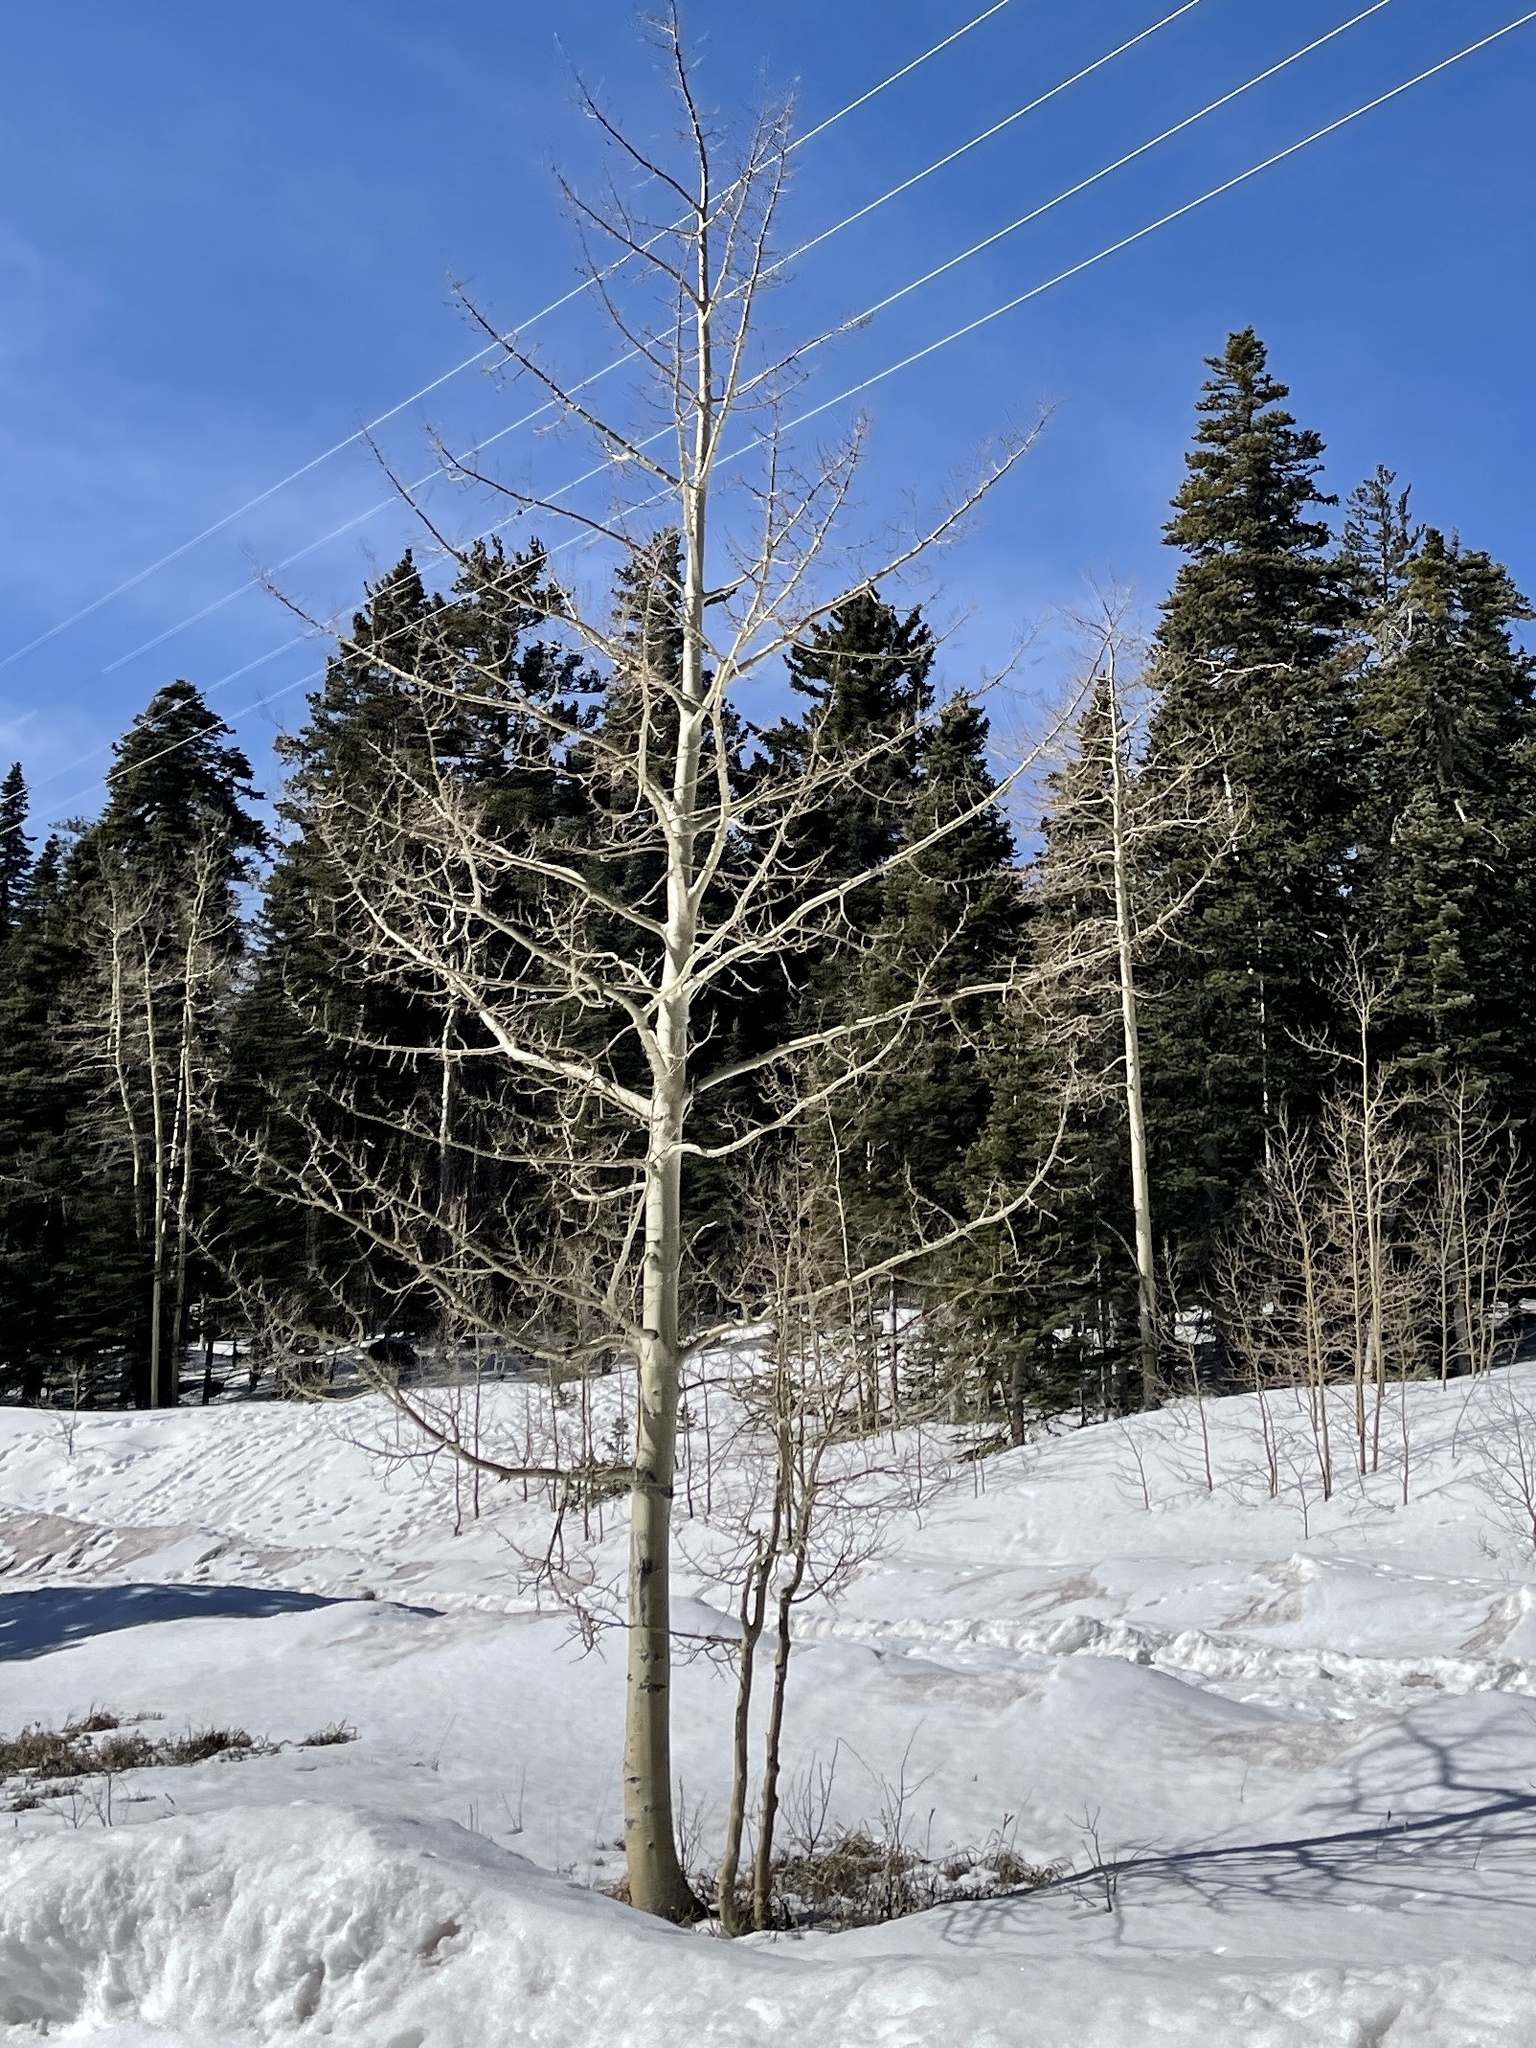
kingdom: Plantae
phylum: Tracheophyta
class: Magnoliopsida
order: Malpighiales
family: Salicaceae
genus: Populus
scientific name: Populus tremuloides
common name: Quaking aspen
